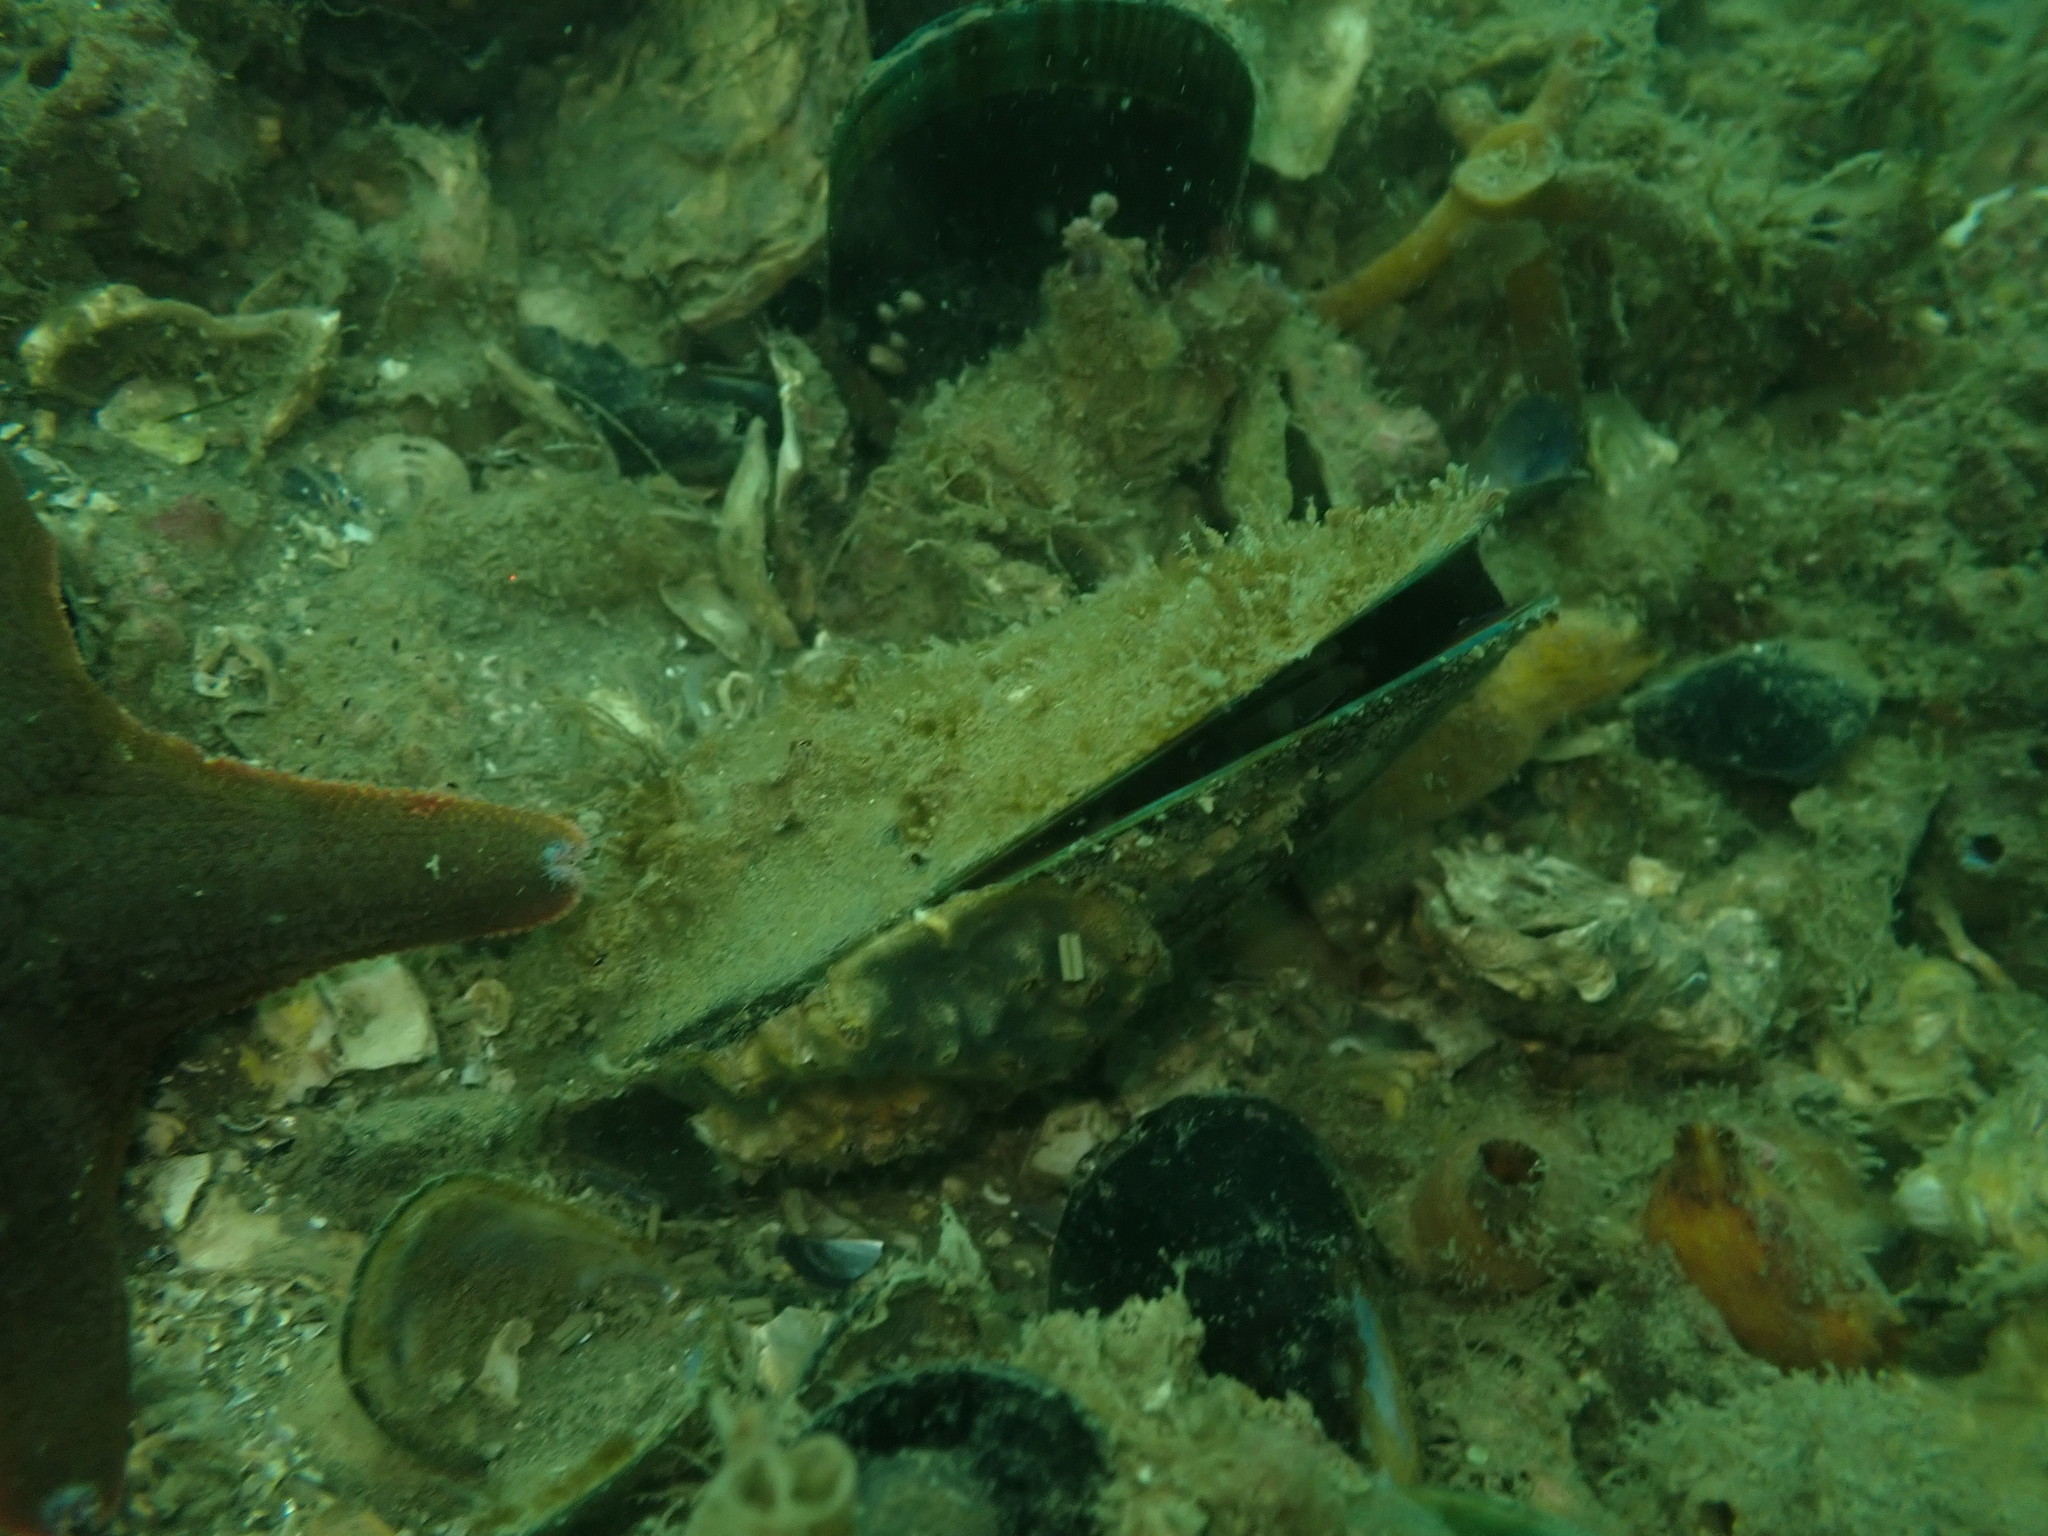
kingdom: Animalia
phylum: Mollusca
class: Bivalvia
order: Mytilida
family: Mytilidae
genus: Perna
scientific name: Perna canaliculus
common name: New zealand greenshelltm
